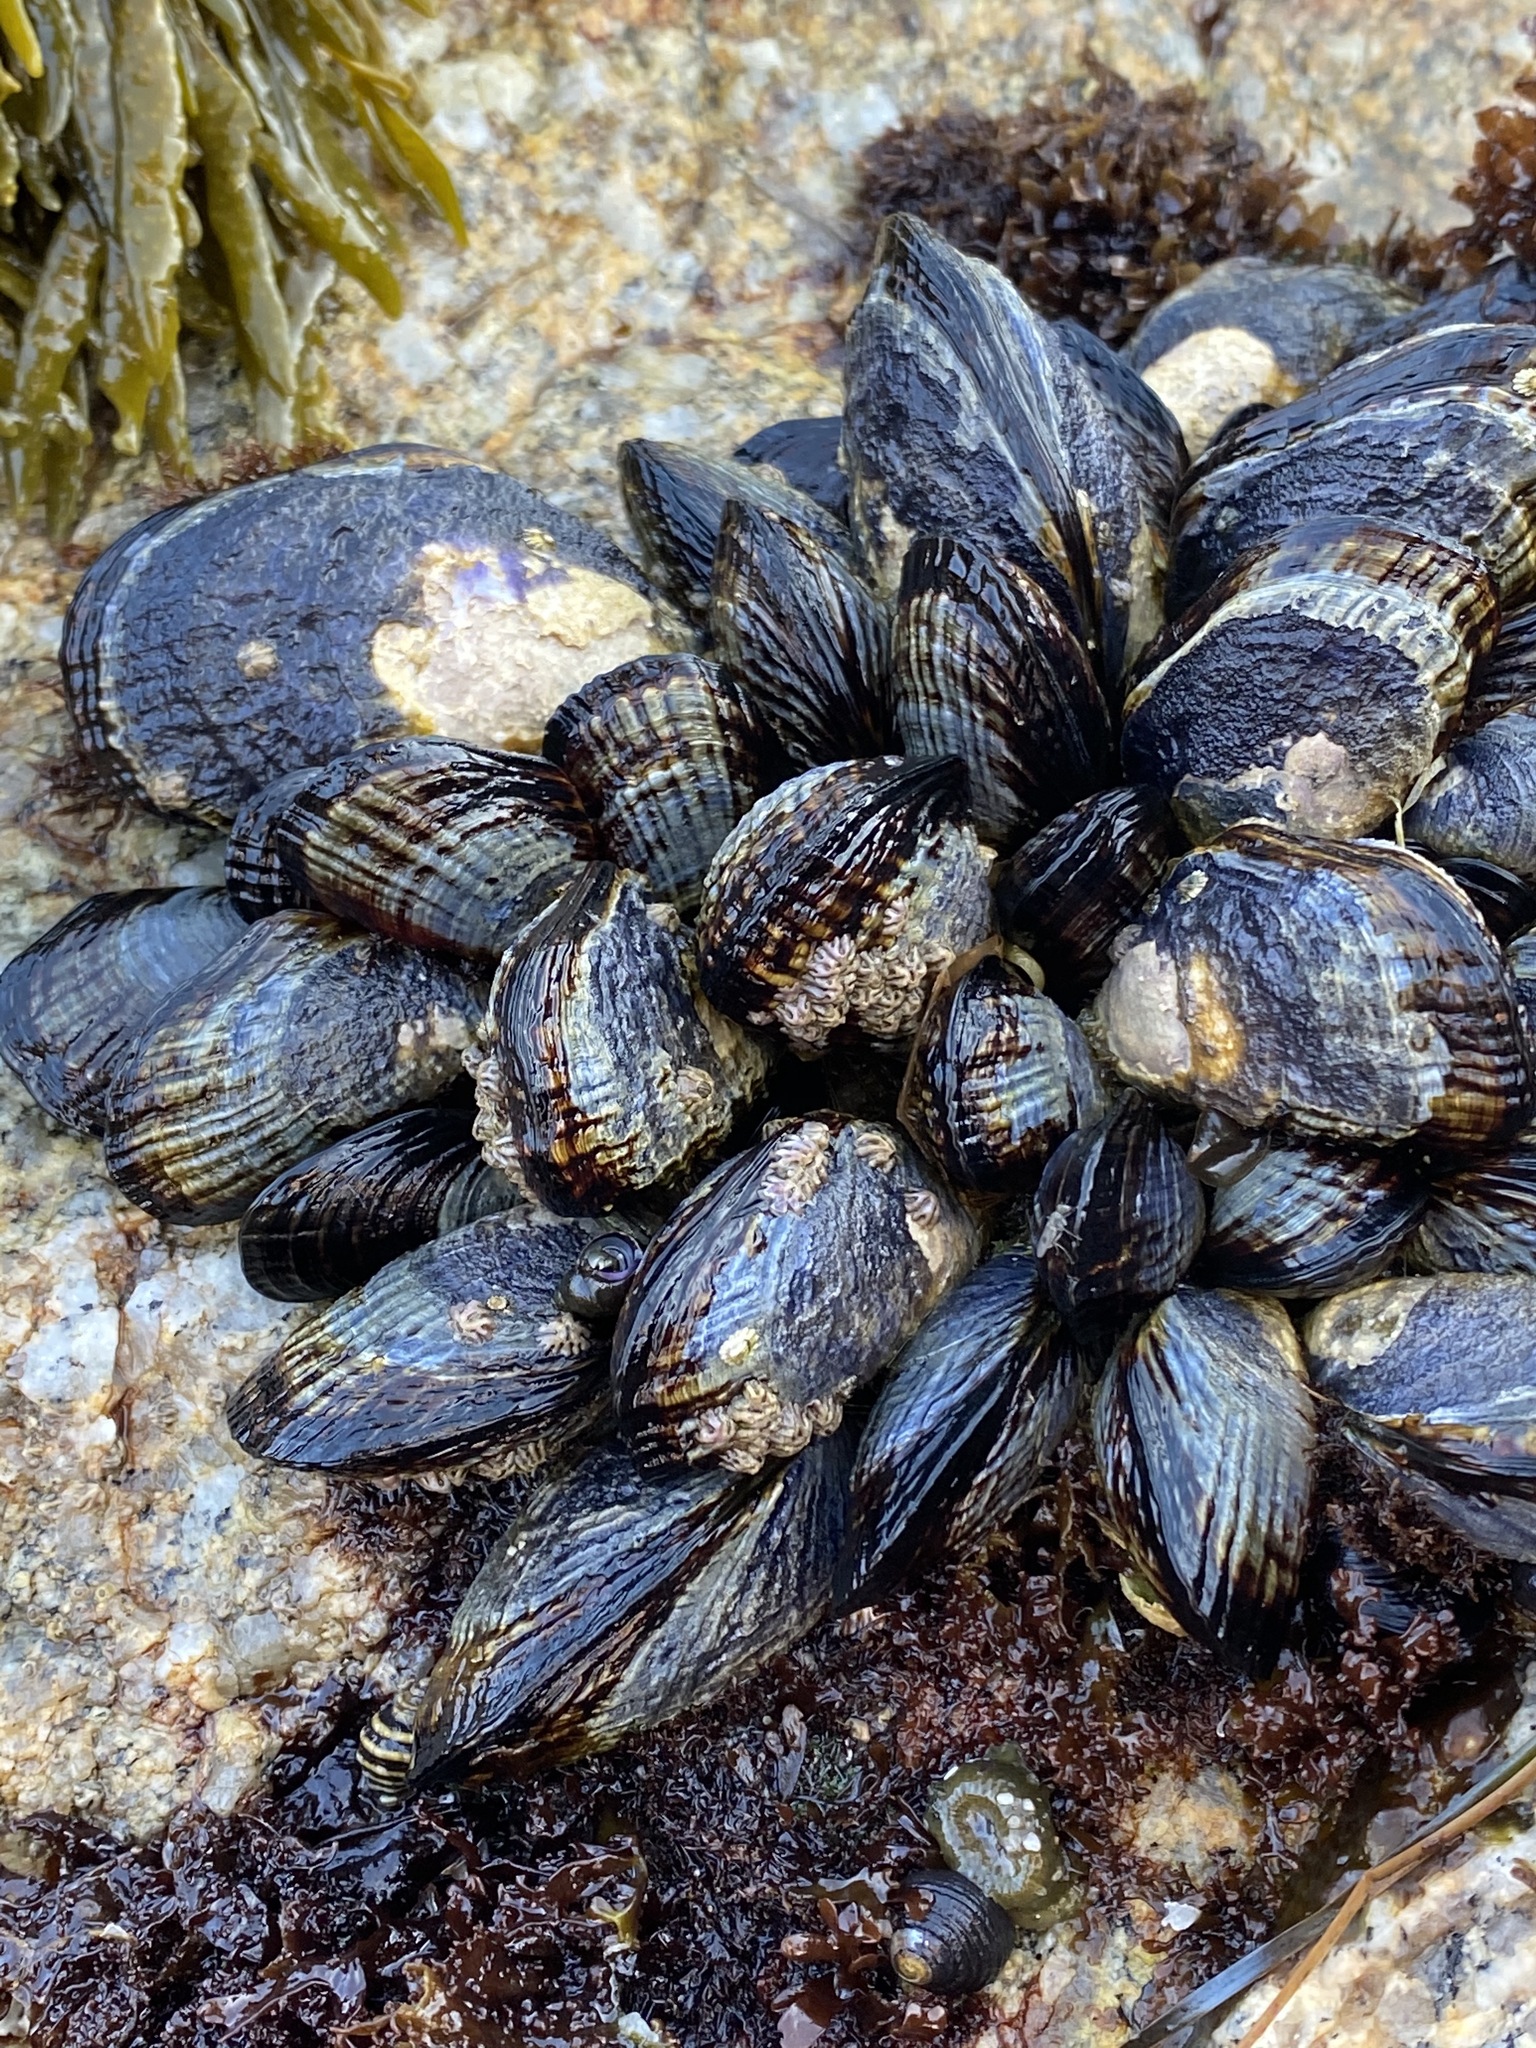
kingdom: Animalia
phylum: Mollusca
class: Bivalvia
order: Mytilida
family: Mytilidae
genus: Mytilus
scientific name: Mytilus californianus
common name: California mussel
